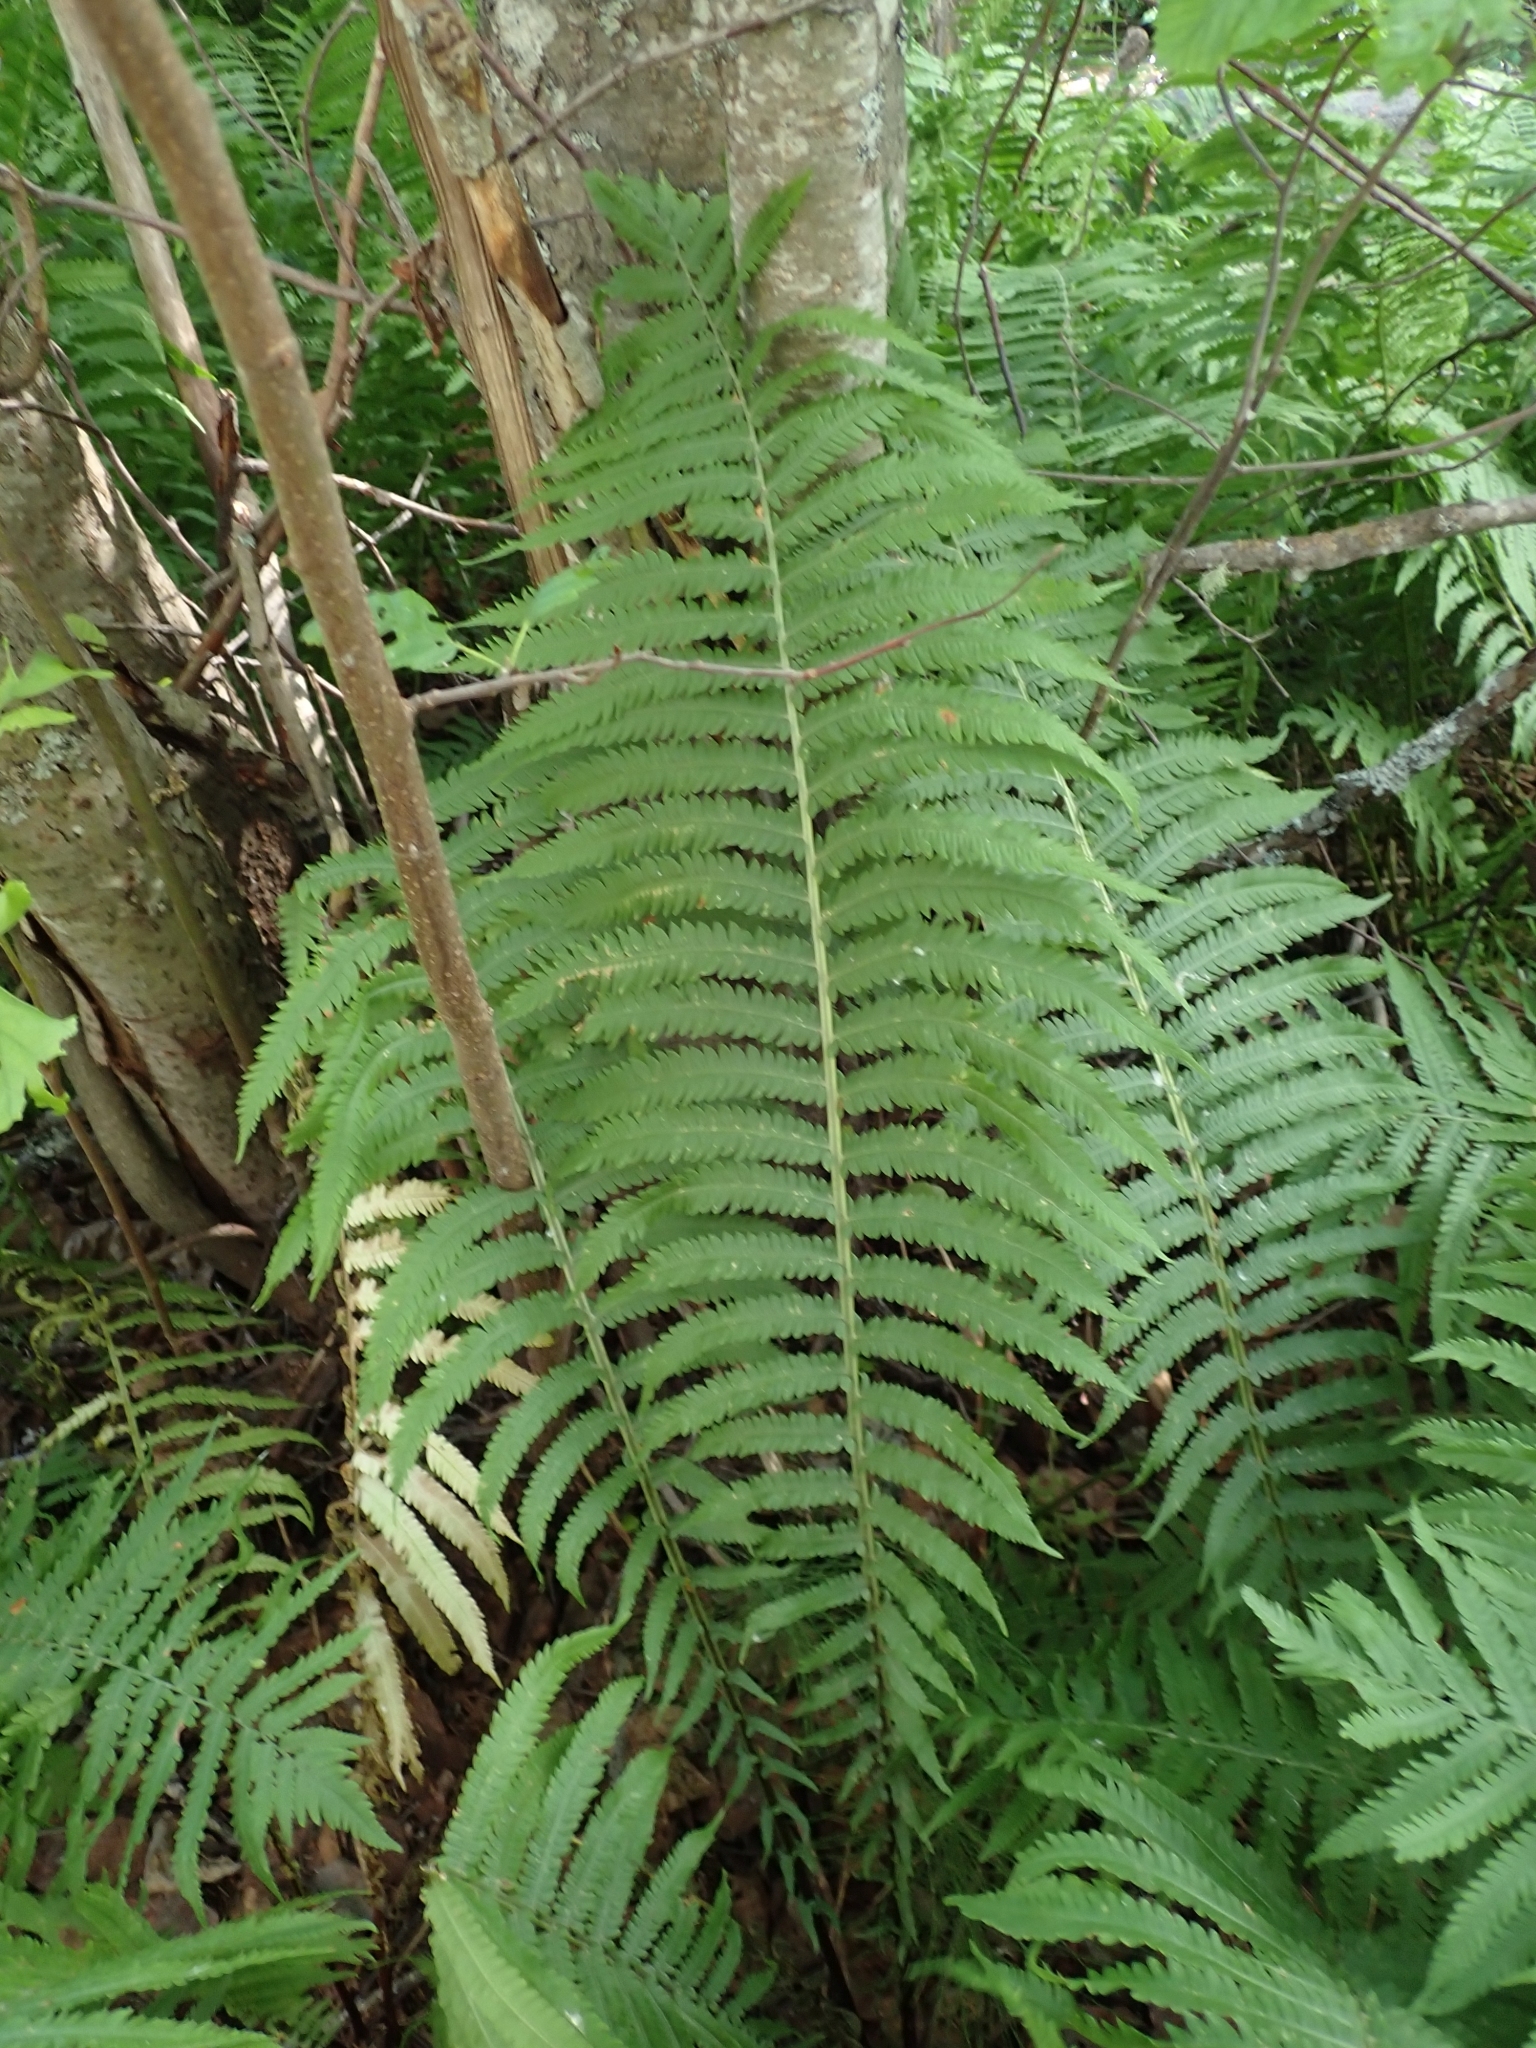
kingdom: Plantae
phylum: Tracheophyta
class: Polypodiopsida
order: Polypodiales
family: Onocleaceae
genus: Matteuccia
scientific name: Matteuccia struthiopteris
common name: Ostrich fern
